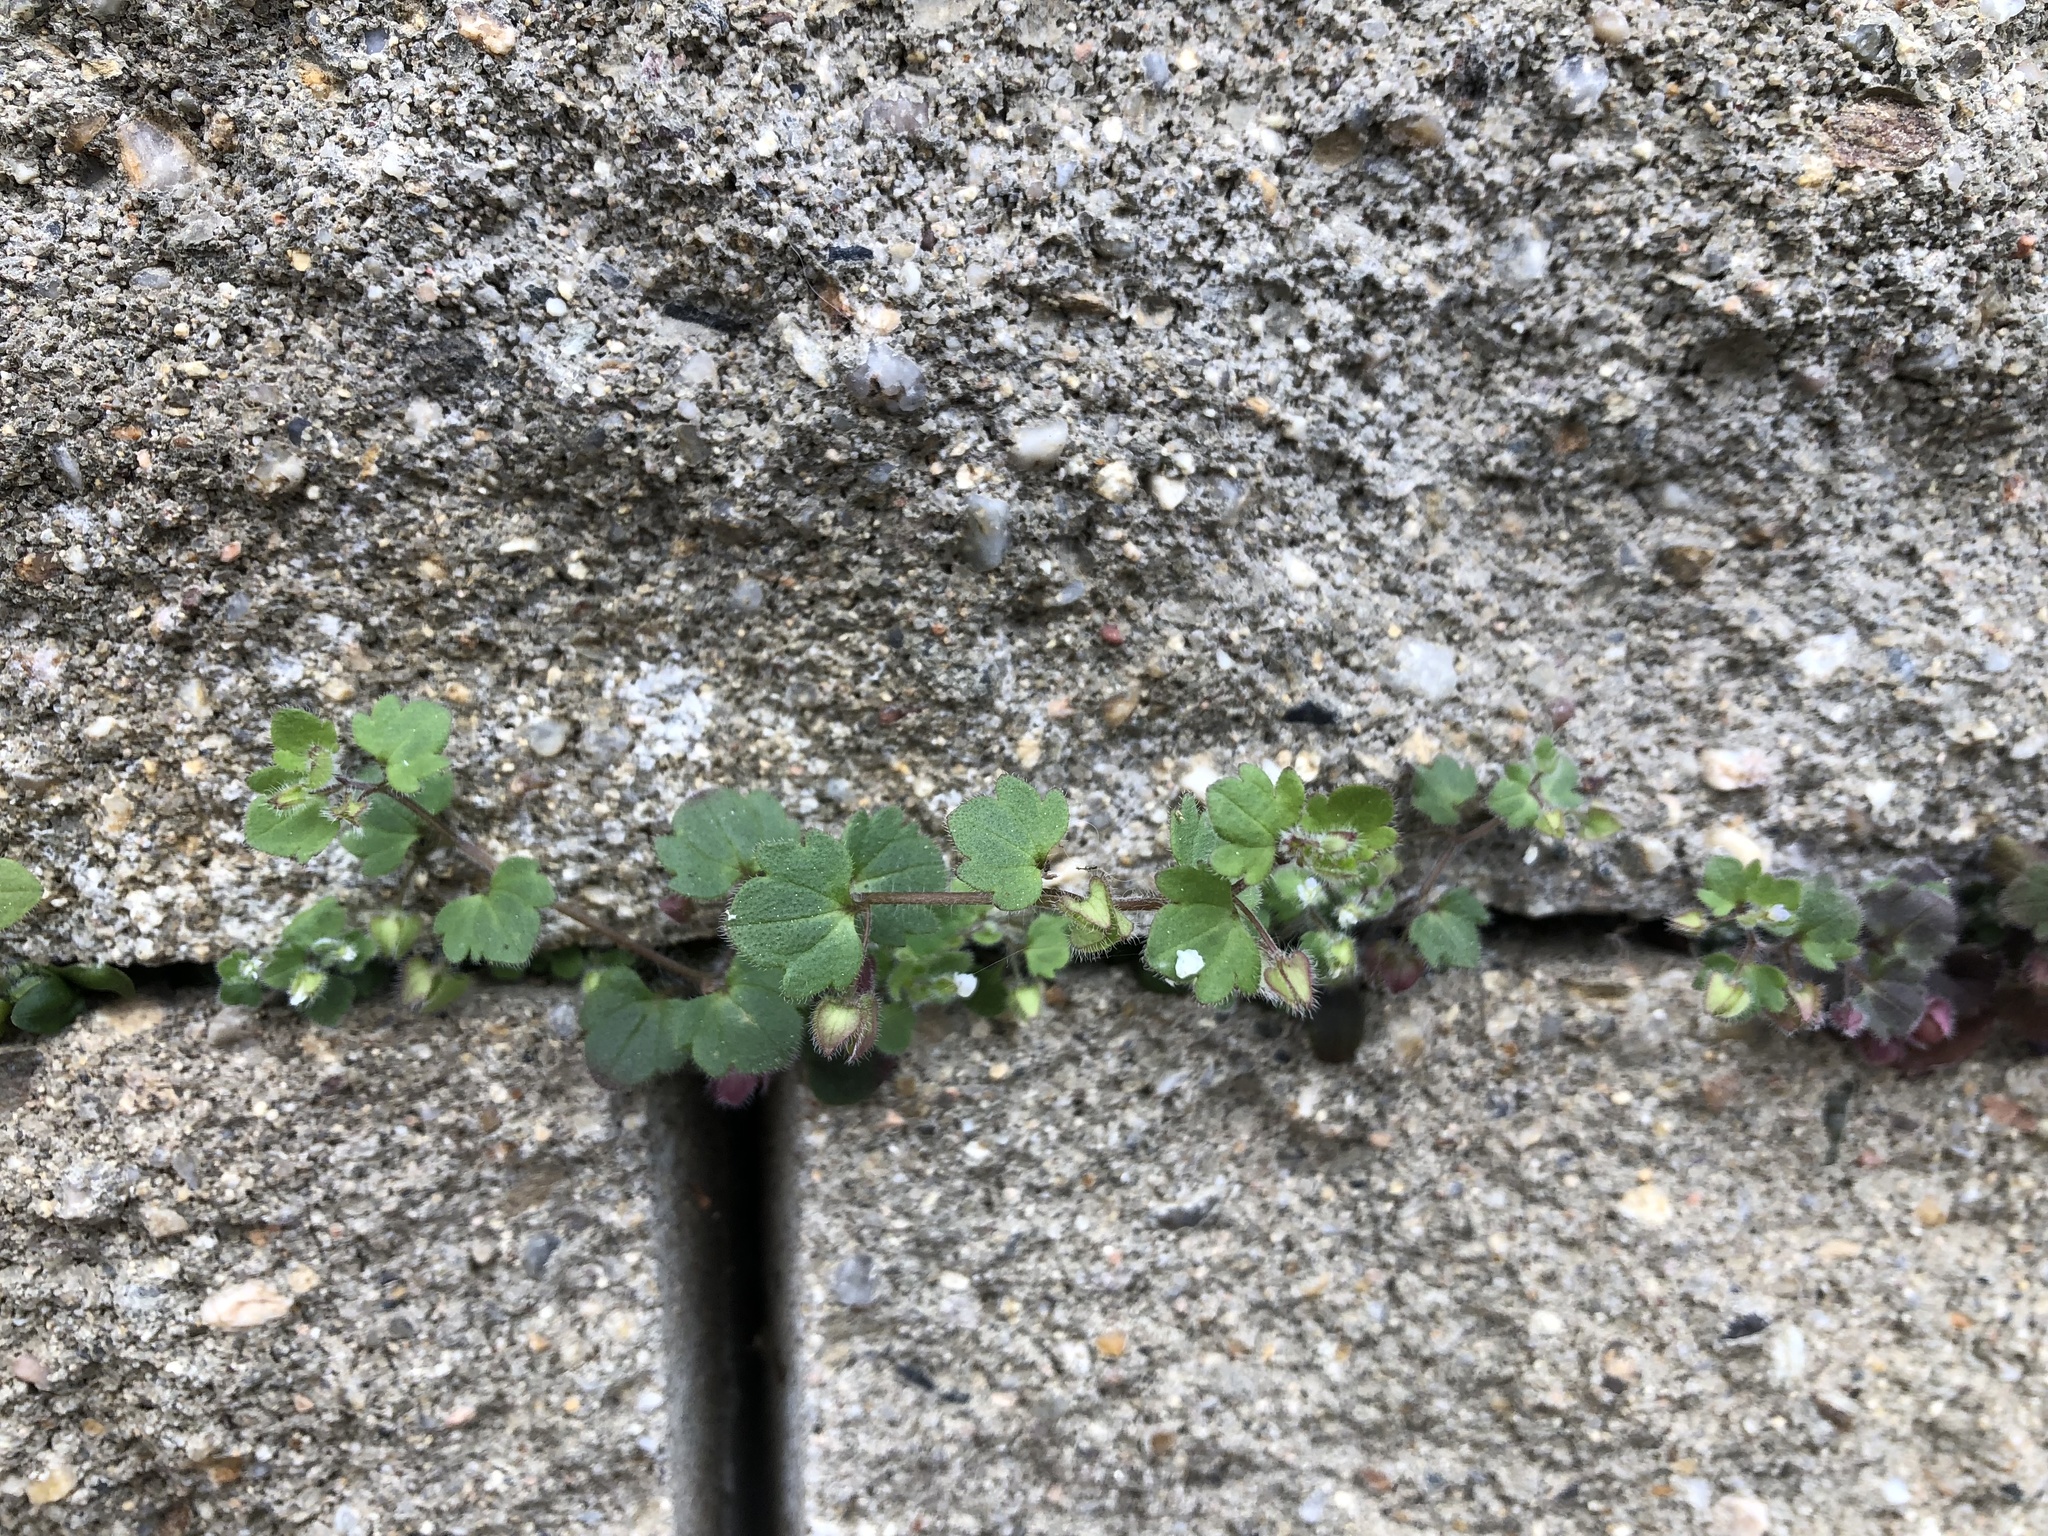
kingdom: Plantae
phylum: Tracheophyta
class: Magnoliopsida
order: Lamiales
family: Plantaginaceae
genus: Veronica
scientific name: Veronica sublobata
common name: False ivy-leaved speedwell
